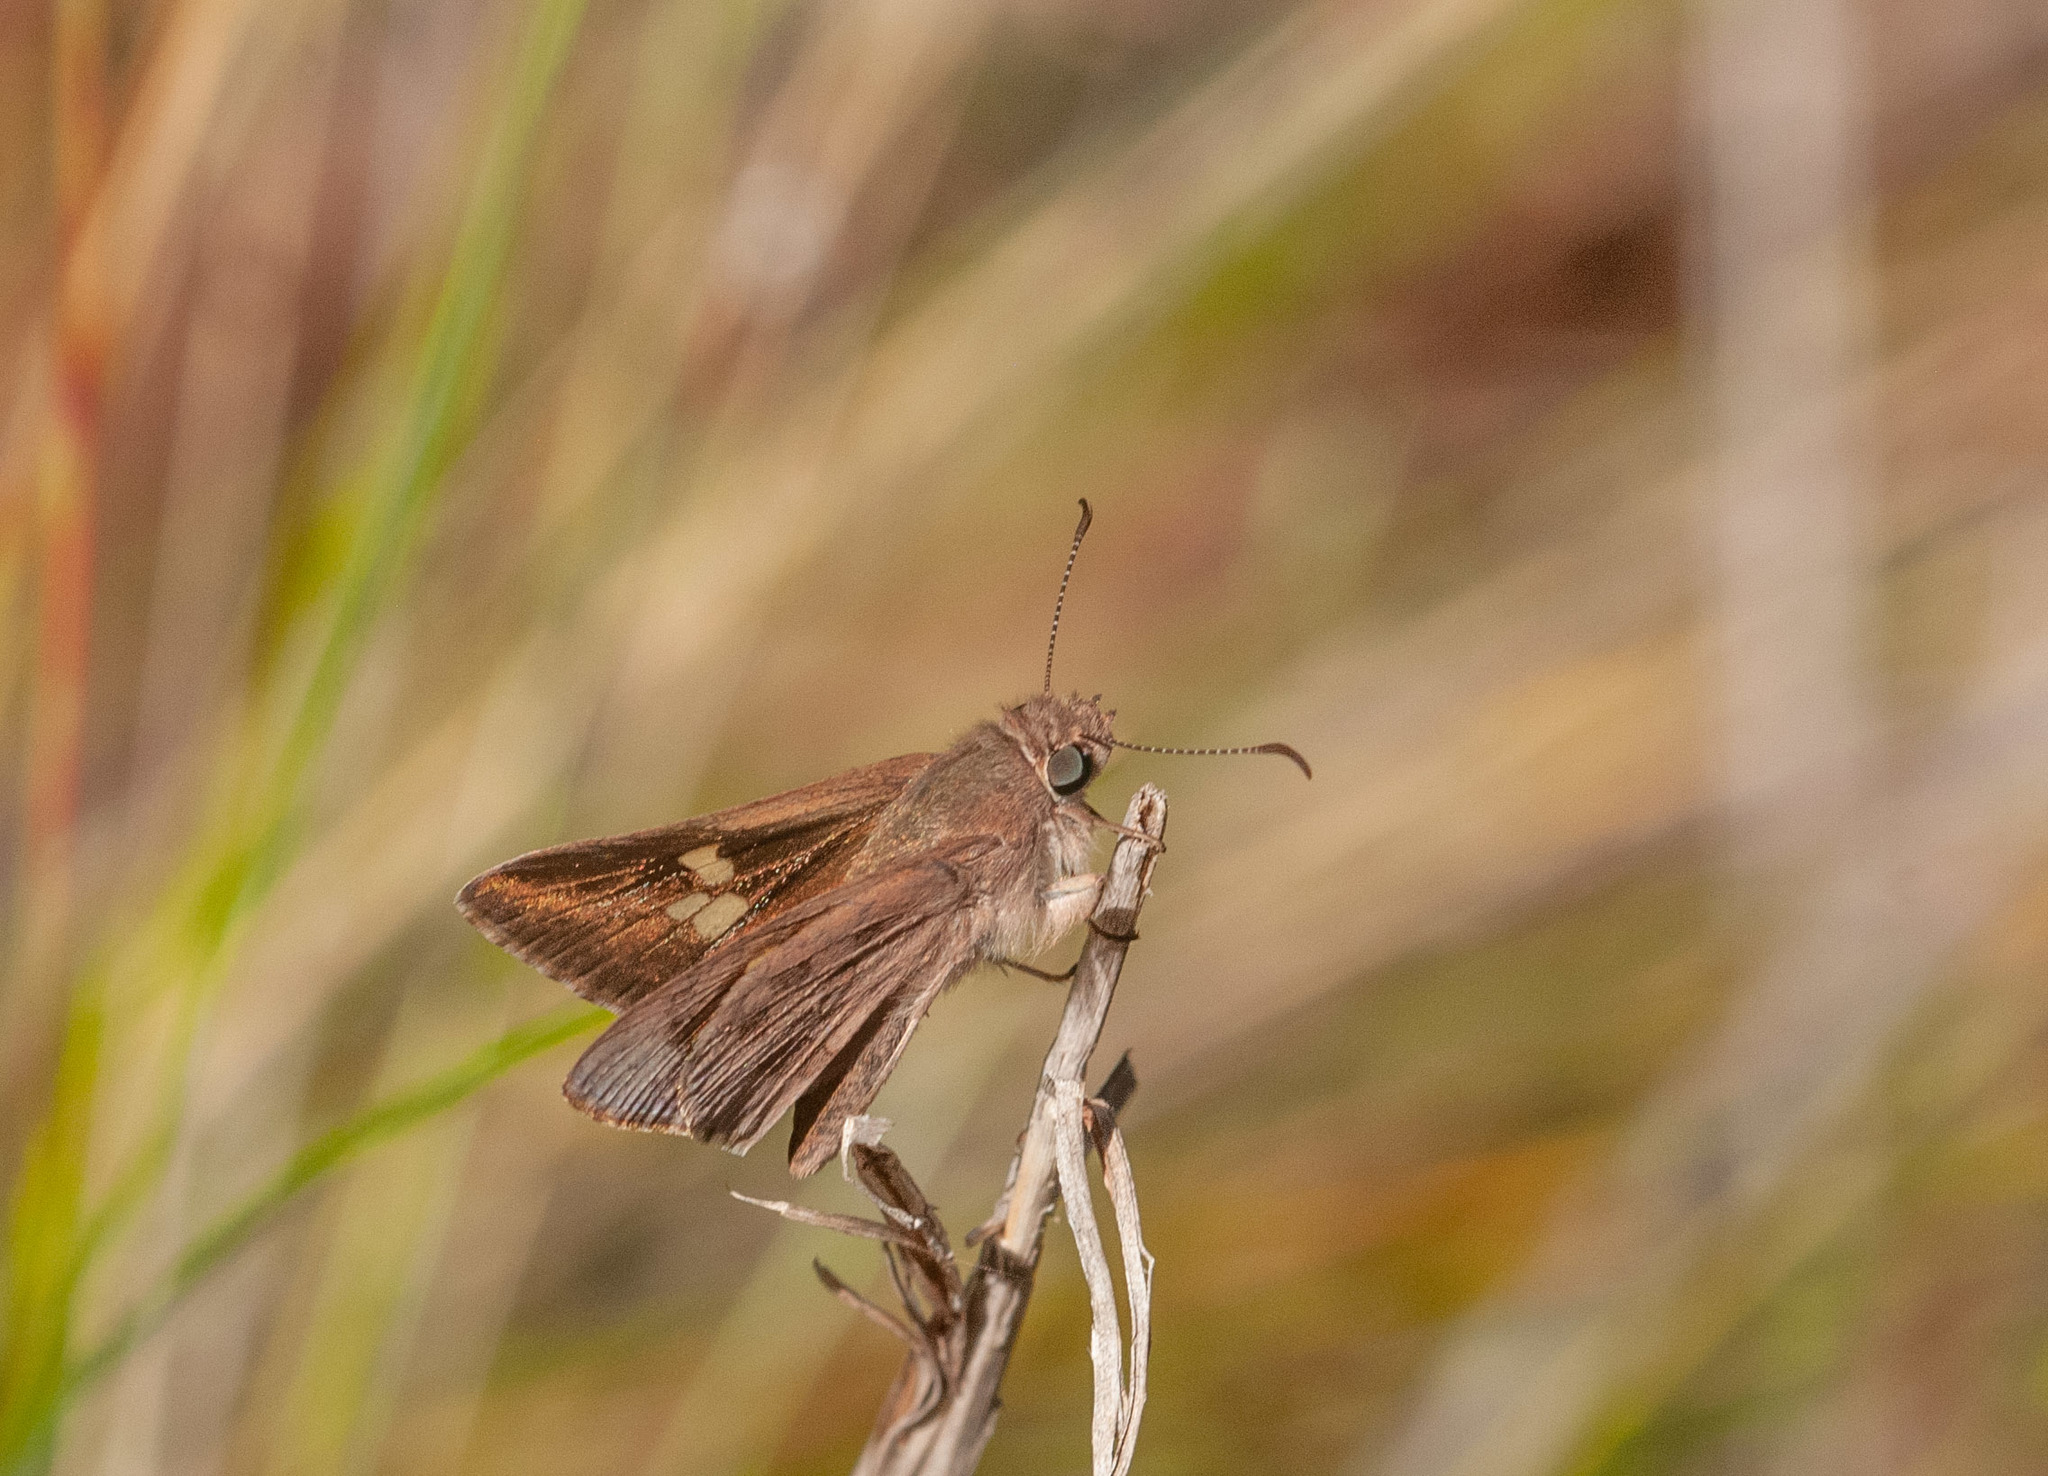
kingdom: Animalia
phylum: Arthropoda
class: Insecta
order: Lepidoptera
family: Hesperiidae
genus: Mesodina
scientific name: Mesodina halyzia
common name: Eastern iris-skipper
